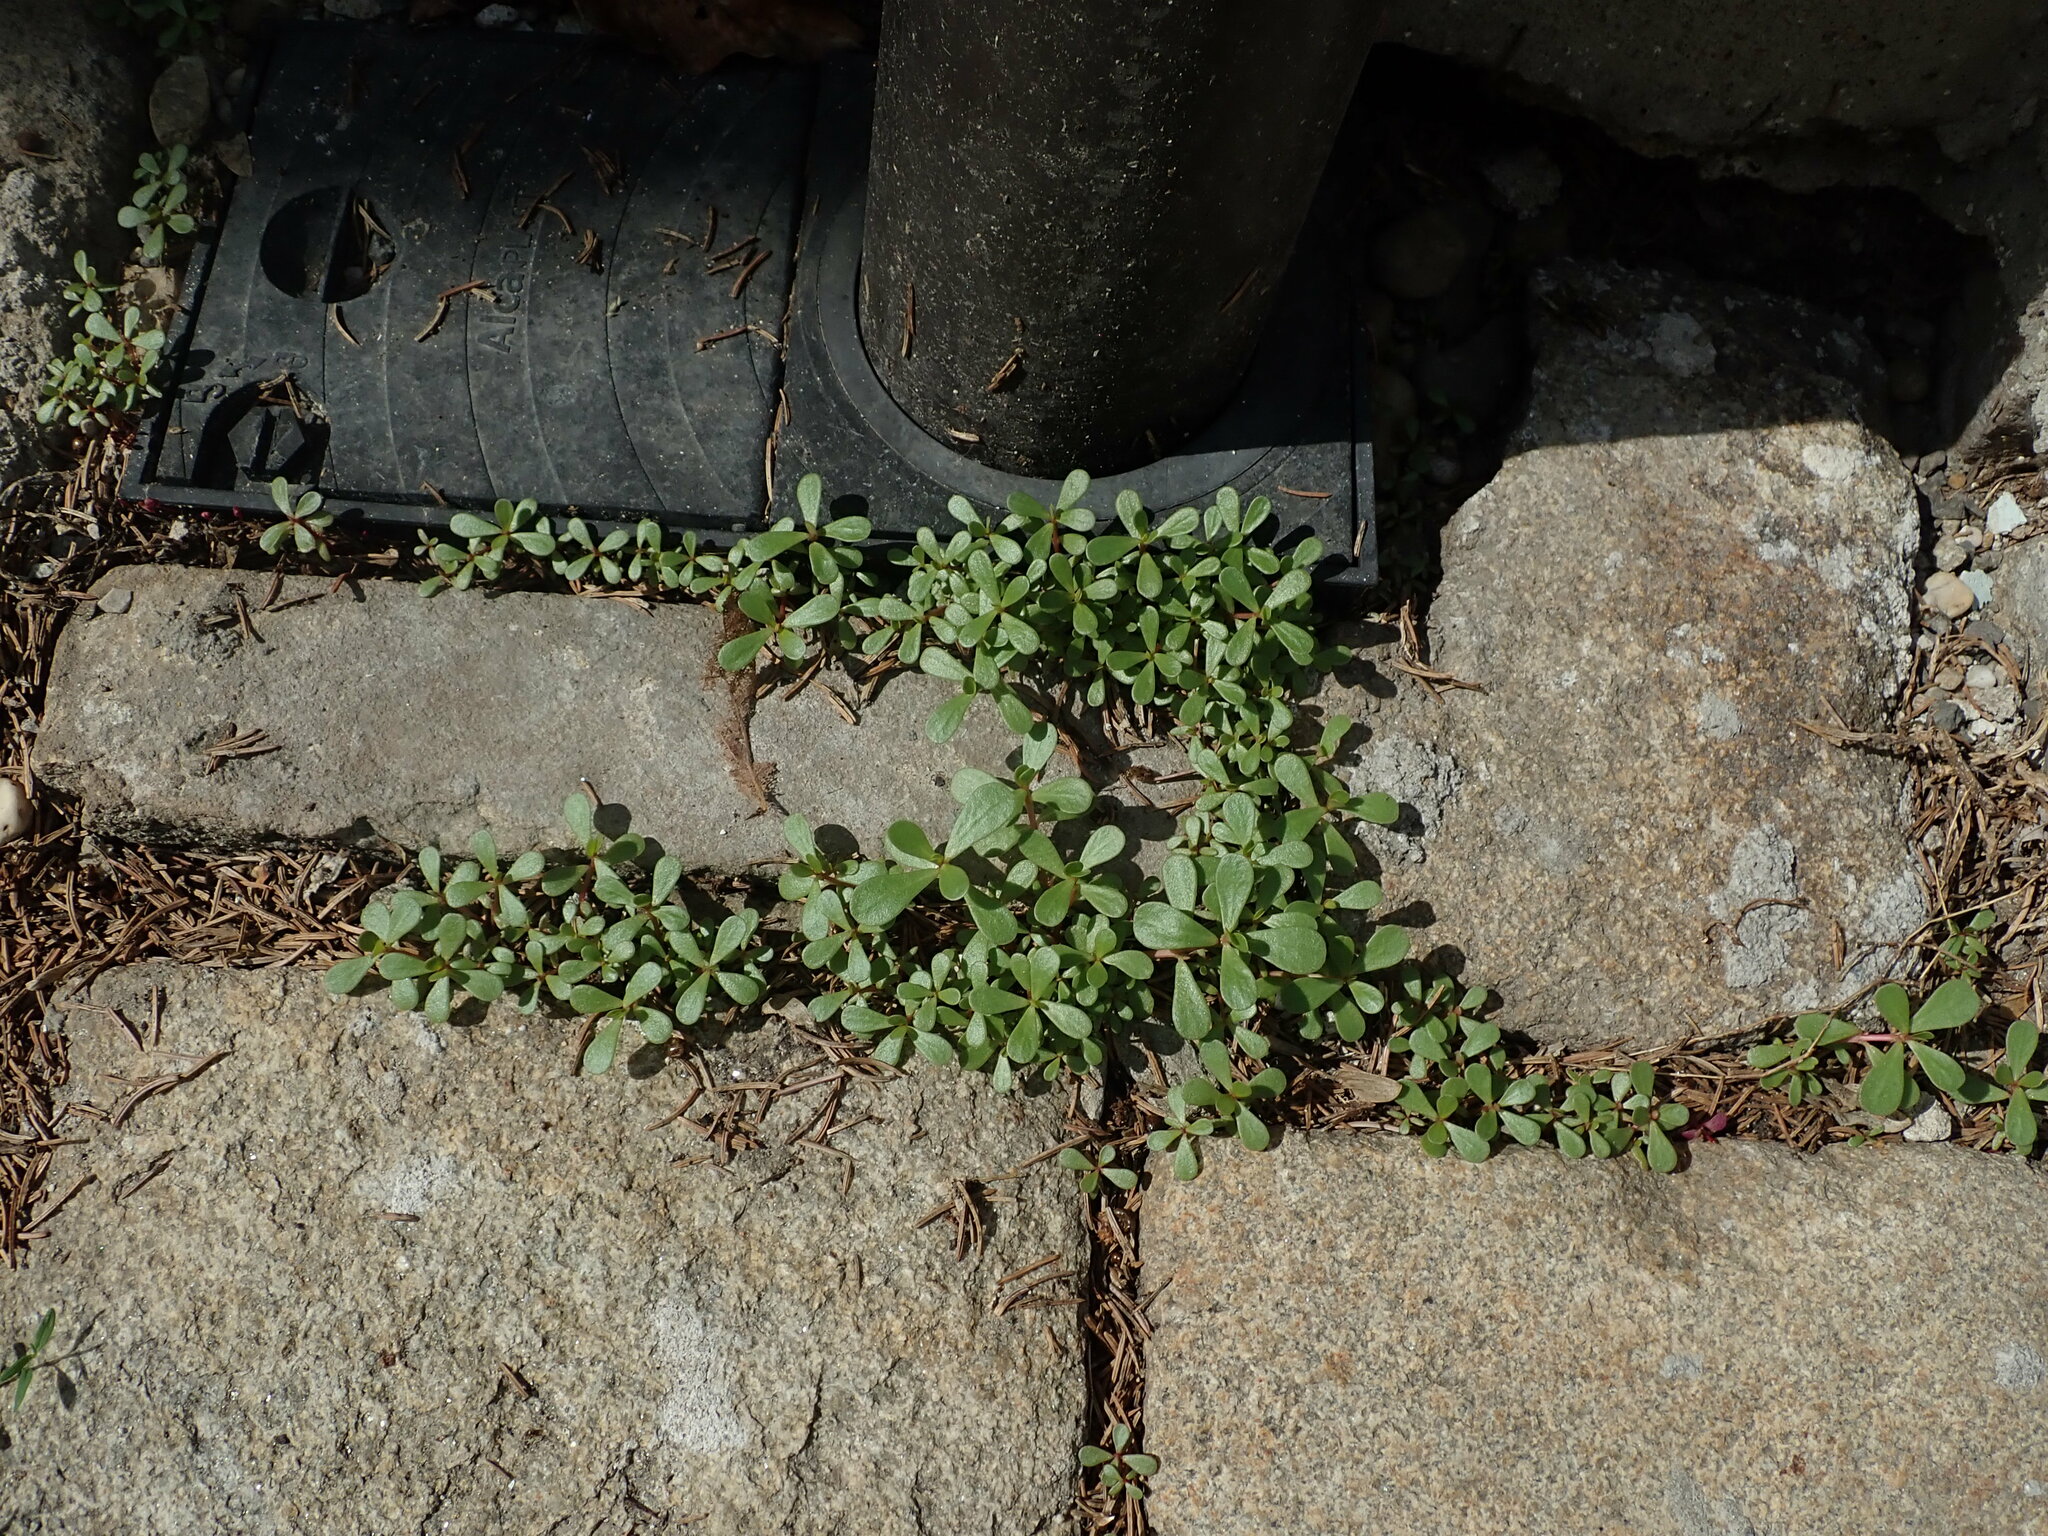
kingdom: Plantae
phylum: Tracheophyta
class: Magnoliopsida
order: Caryophyllales
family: Portulacaceae
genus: Portulaca
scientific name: Portulaca oleracea
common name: Common purslane
